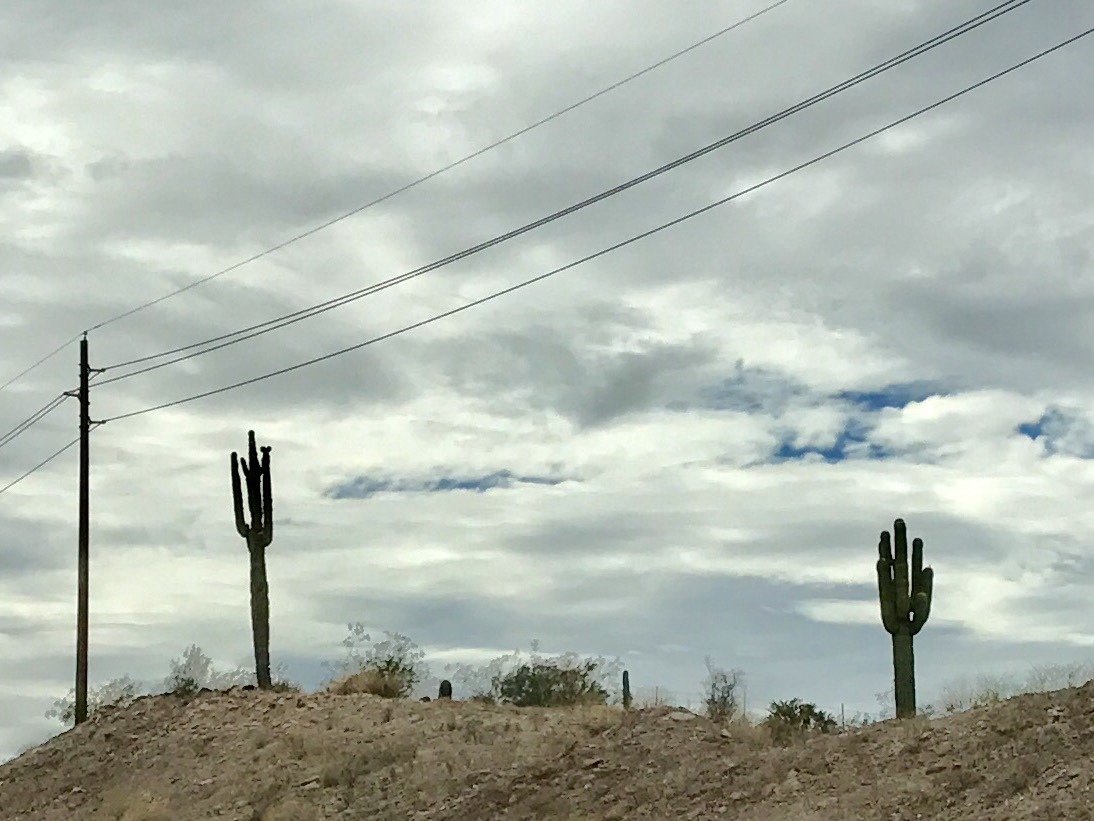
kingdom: Plantae
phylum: Tracheophyta
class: Magnoliopsida
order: Caryophyllales
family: Cactaceae
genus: Carnegiea
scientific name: Carnegiea gigantea
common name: Saguaro
